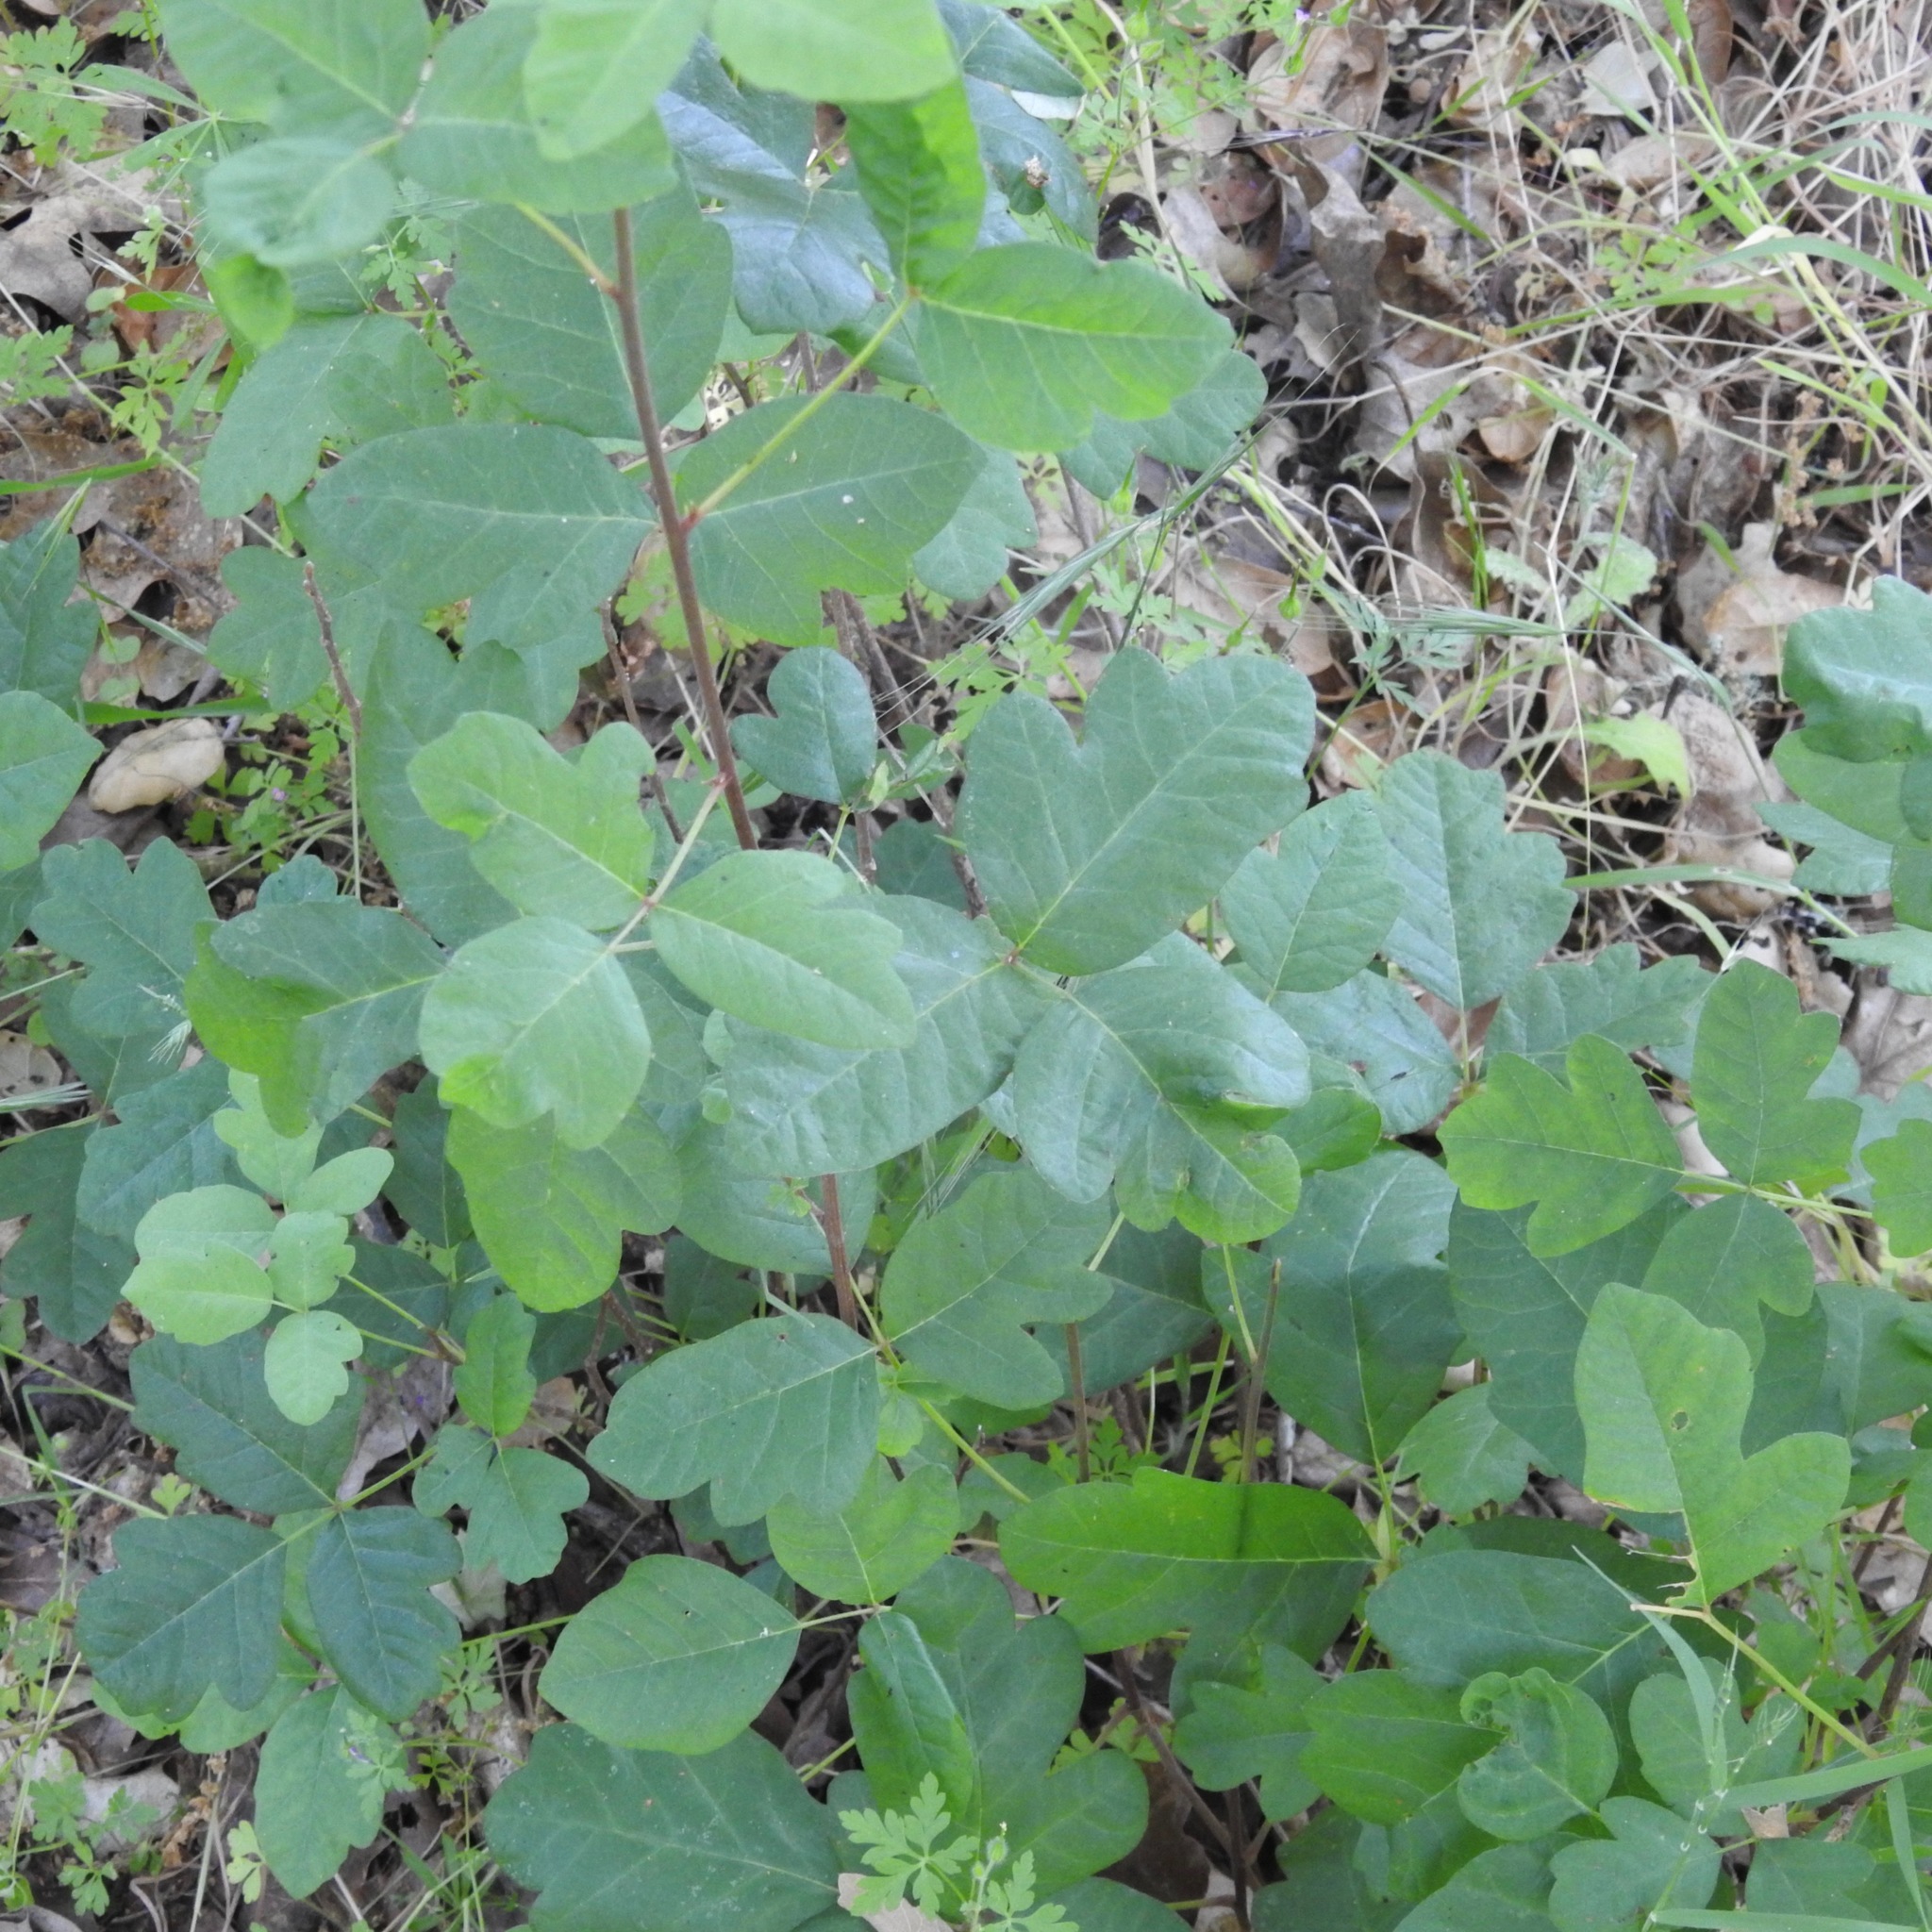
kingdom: Plantae
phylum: Tracheophyta
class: Magnoliopsida
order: Sapindales
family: Anacardiaceae
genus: Toxicodendron
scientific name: Toxicodendron diversilobum
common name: Pacific poison-oak
